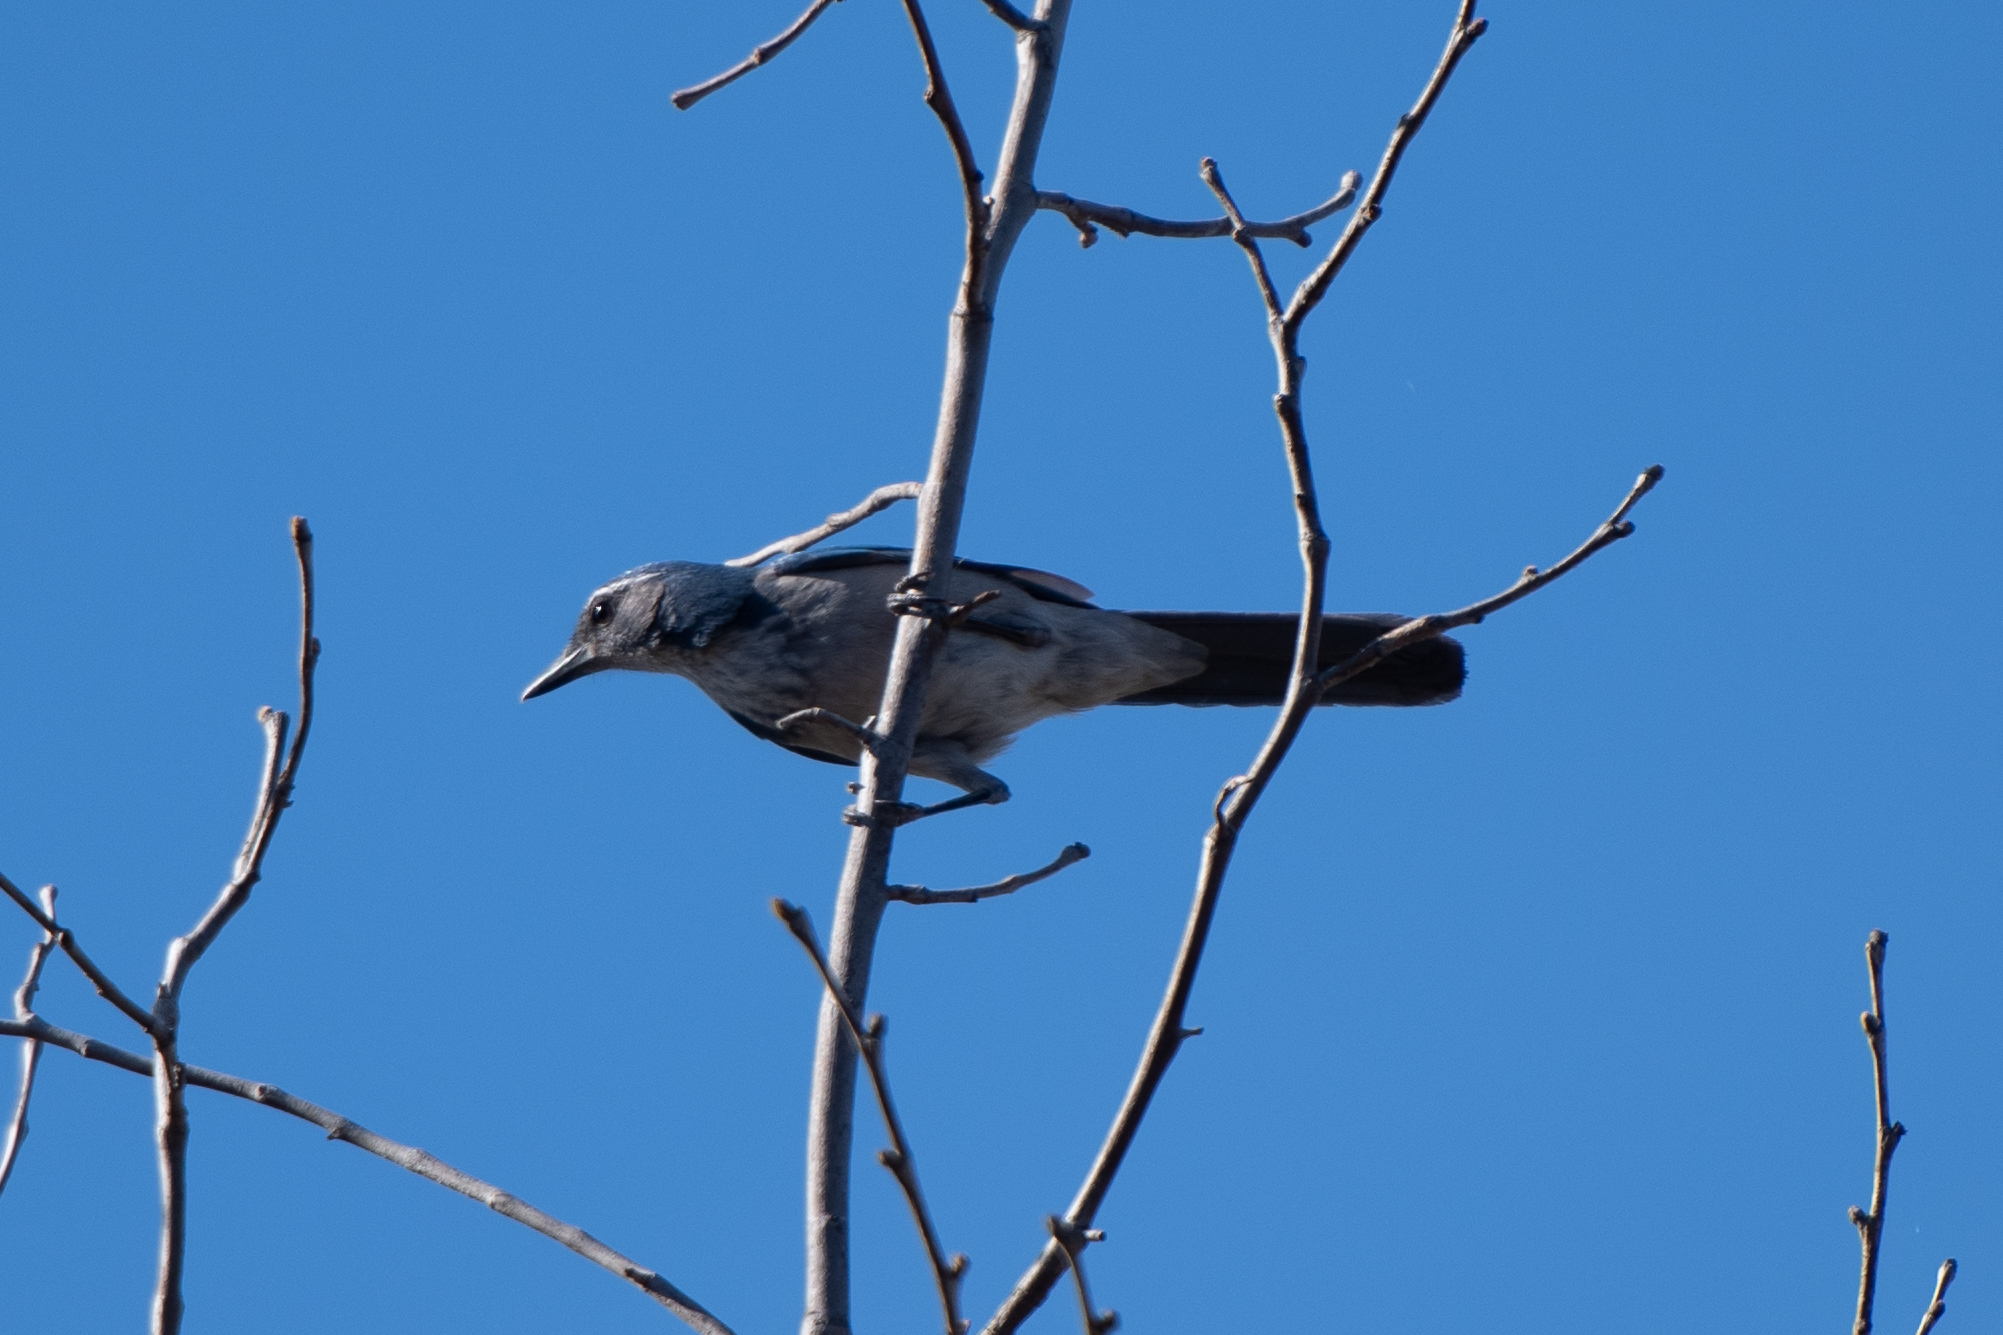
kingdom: Animalia
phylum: Chordata
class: Aves
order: Passeriformes
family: Corvidae
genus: Aphelocoma
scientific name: Aphelocoma californica
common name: California scrub-jay
